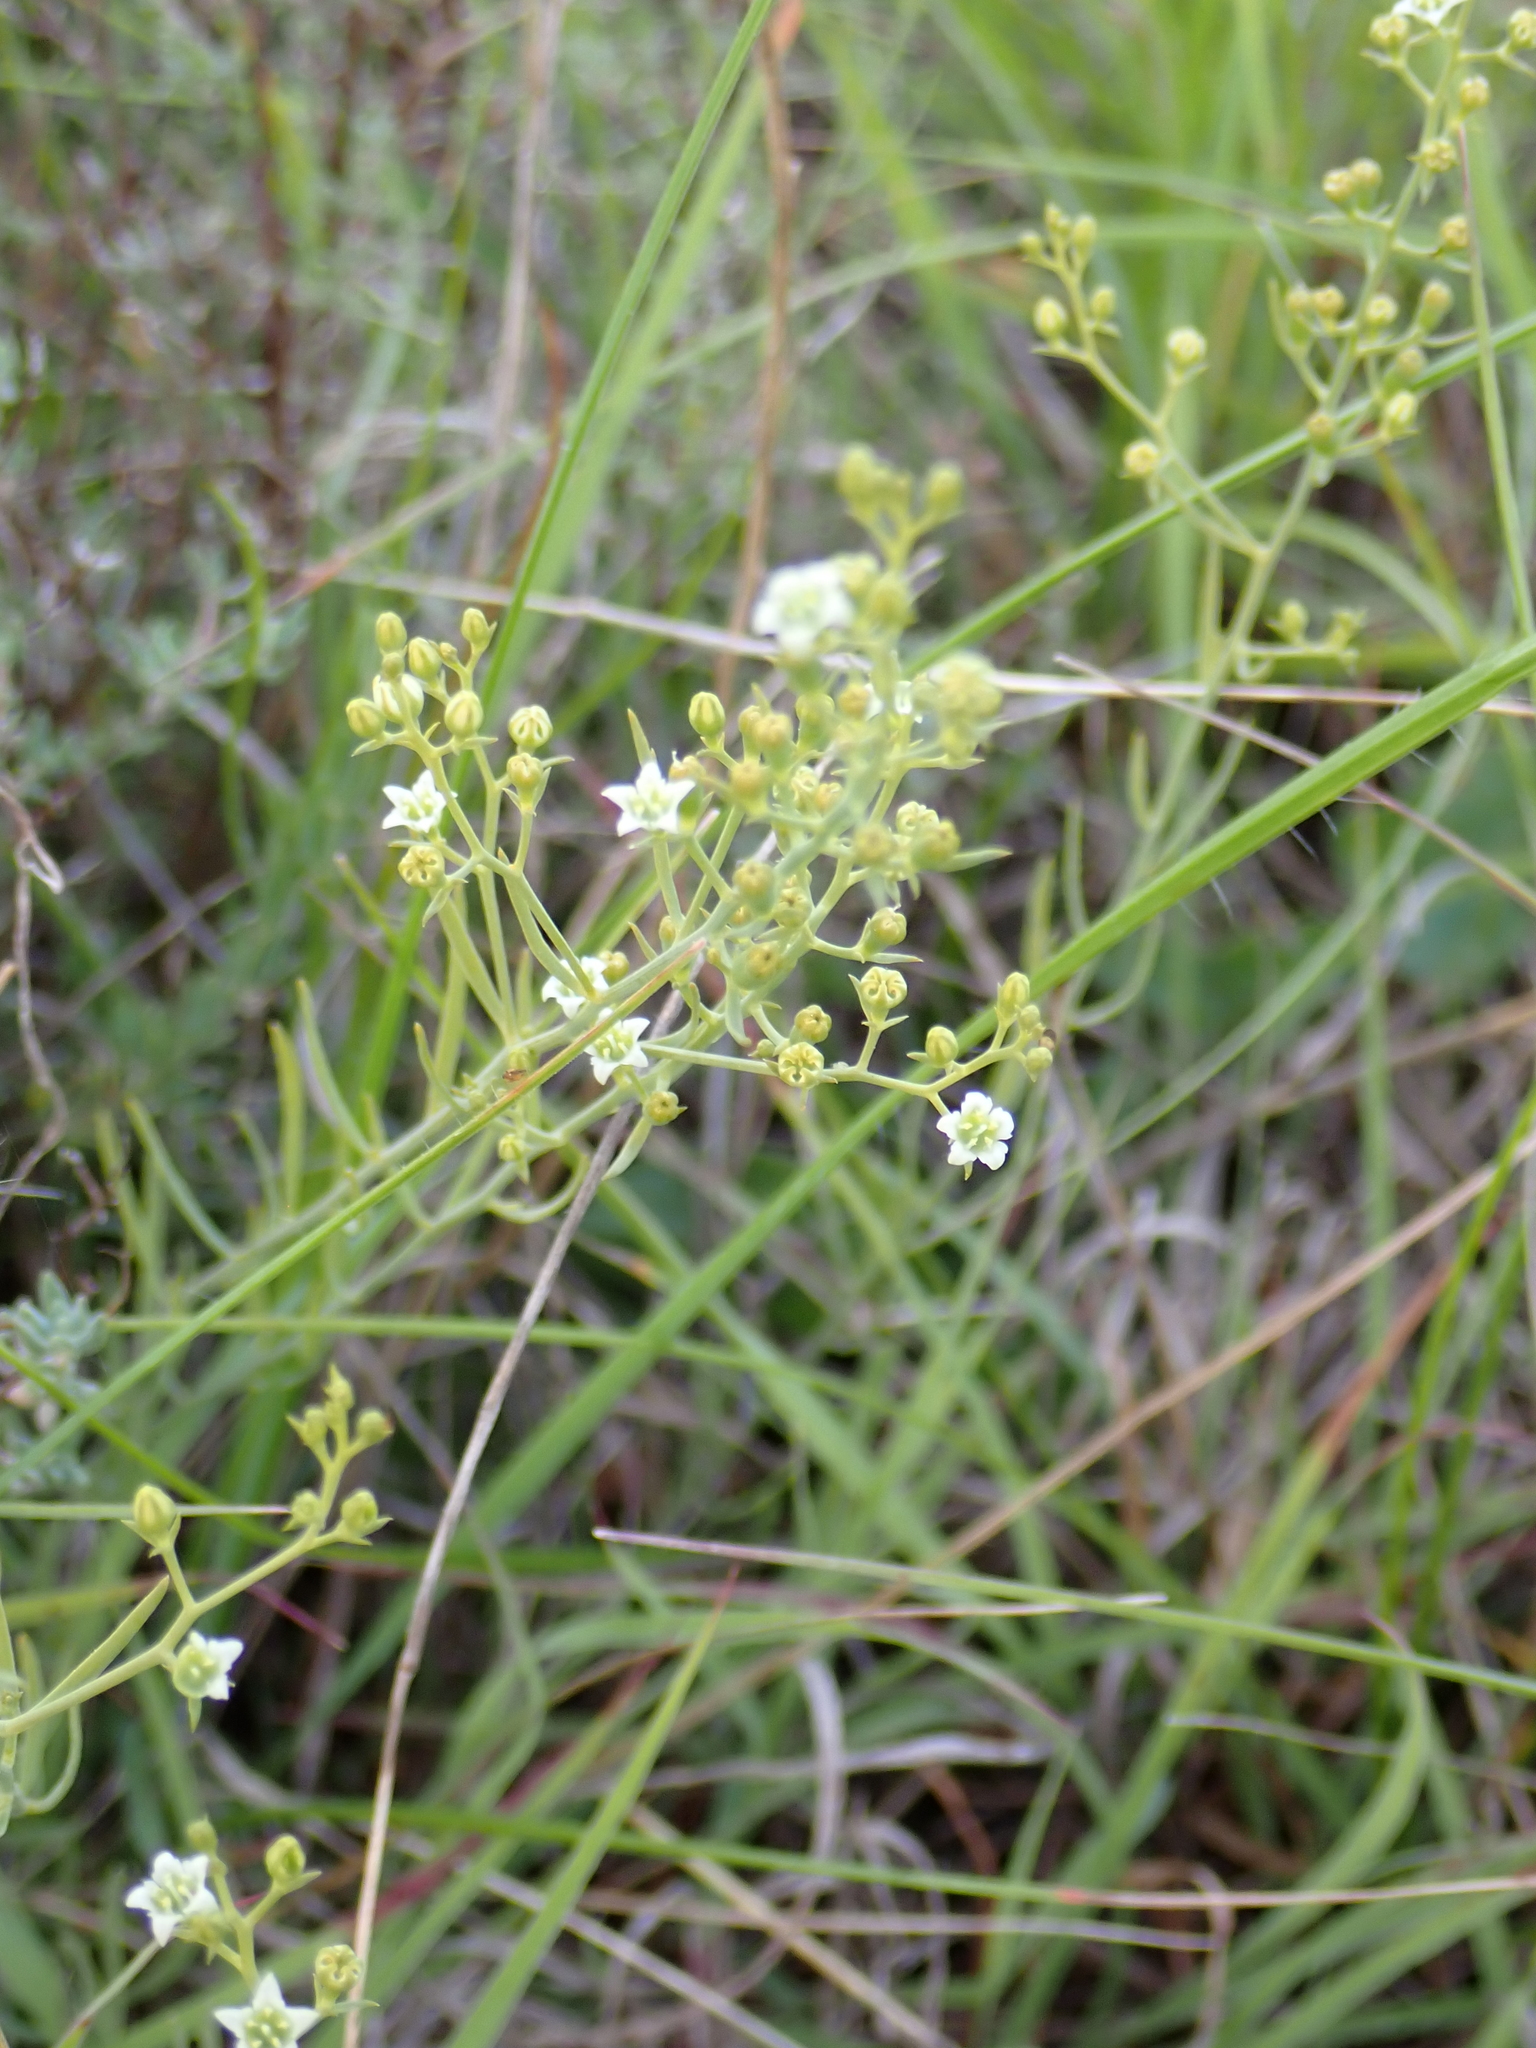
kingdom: Plantae
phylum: Tracheophyta
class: Magnoliopsida
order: Santalales
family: Thesiaceae
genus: Thesium
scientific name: Thesium divaricatum
